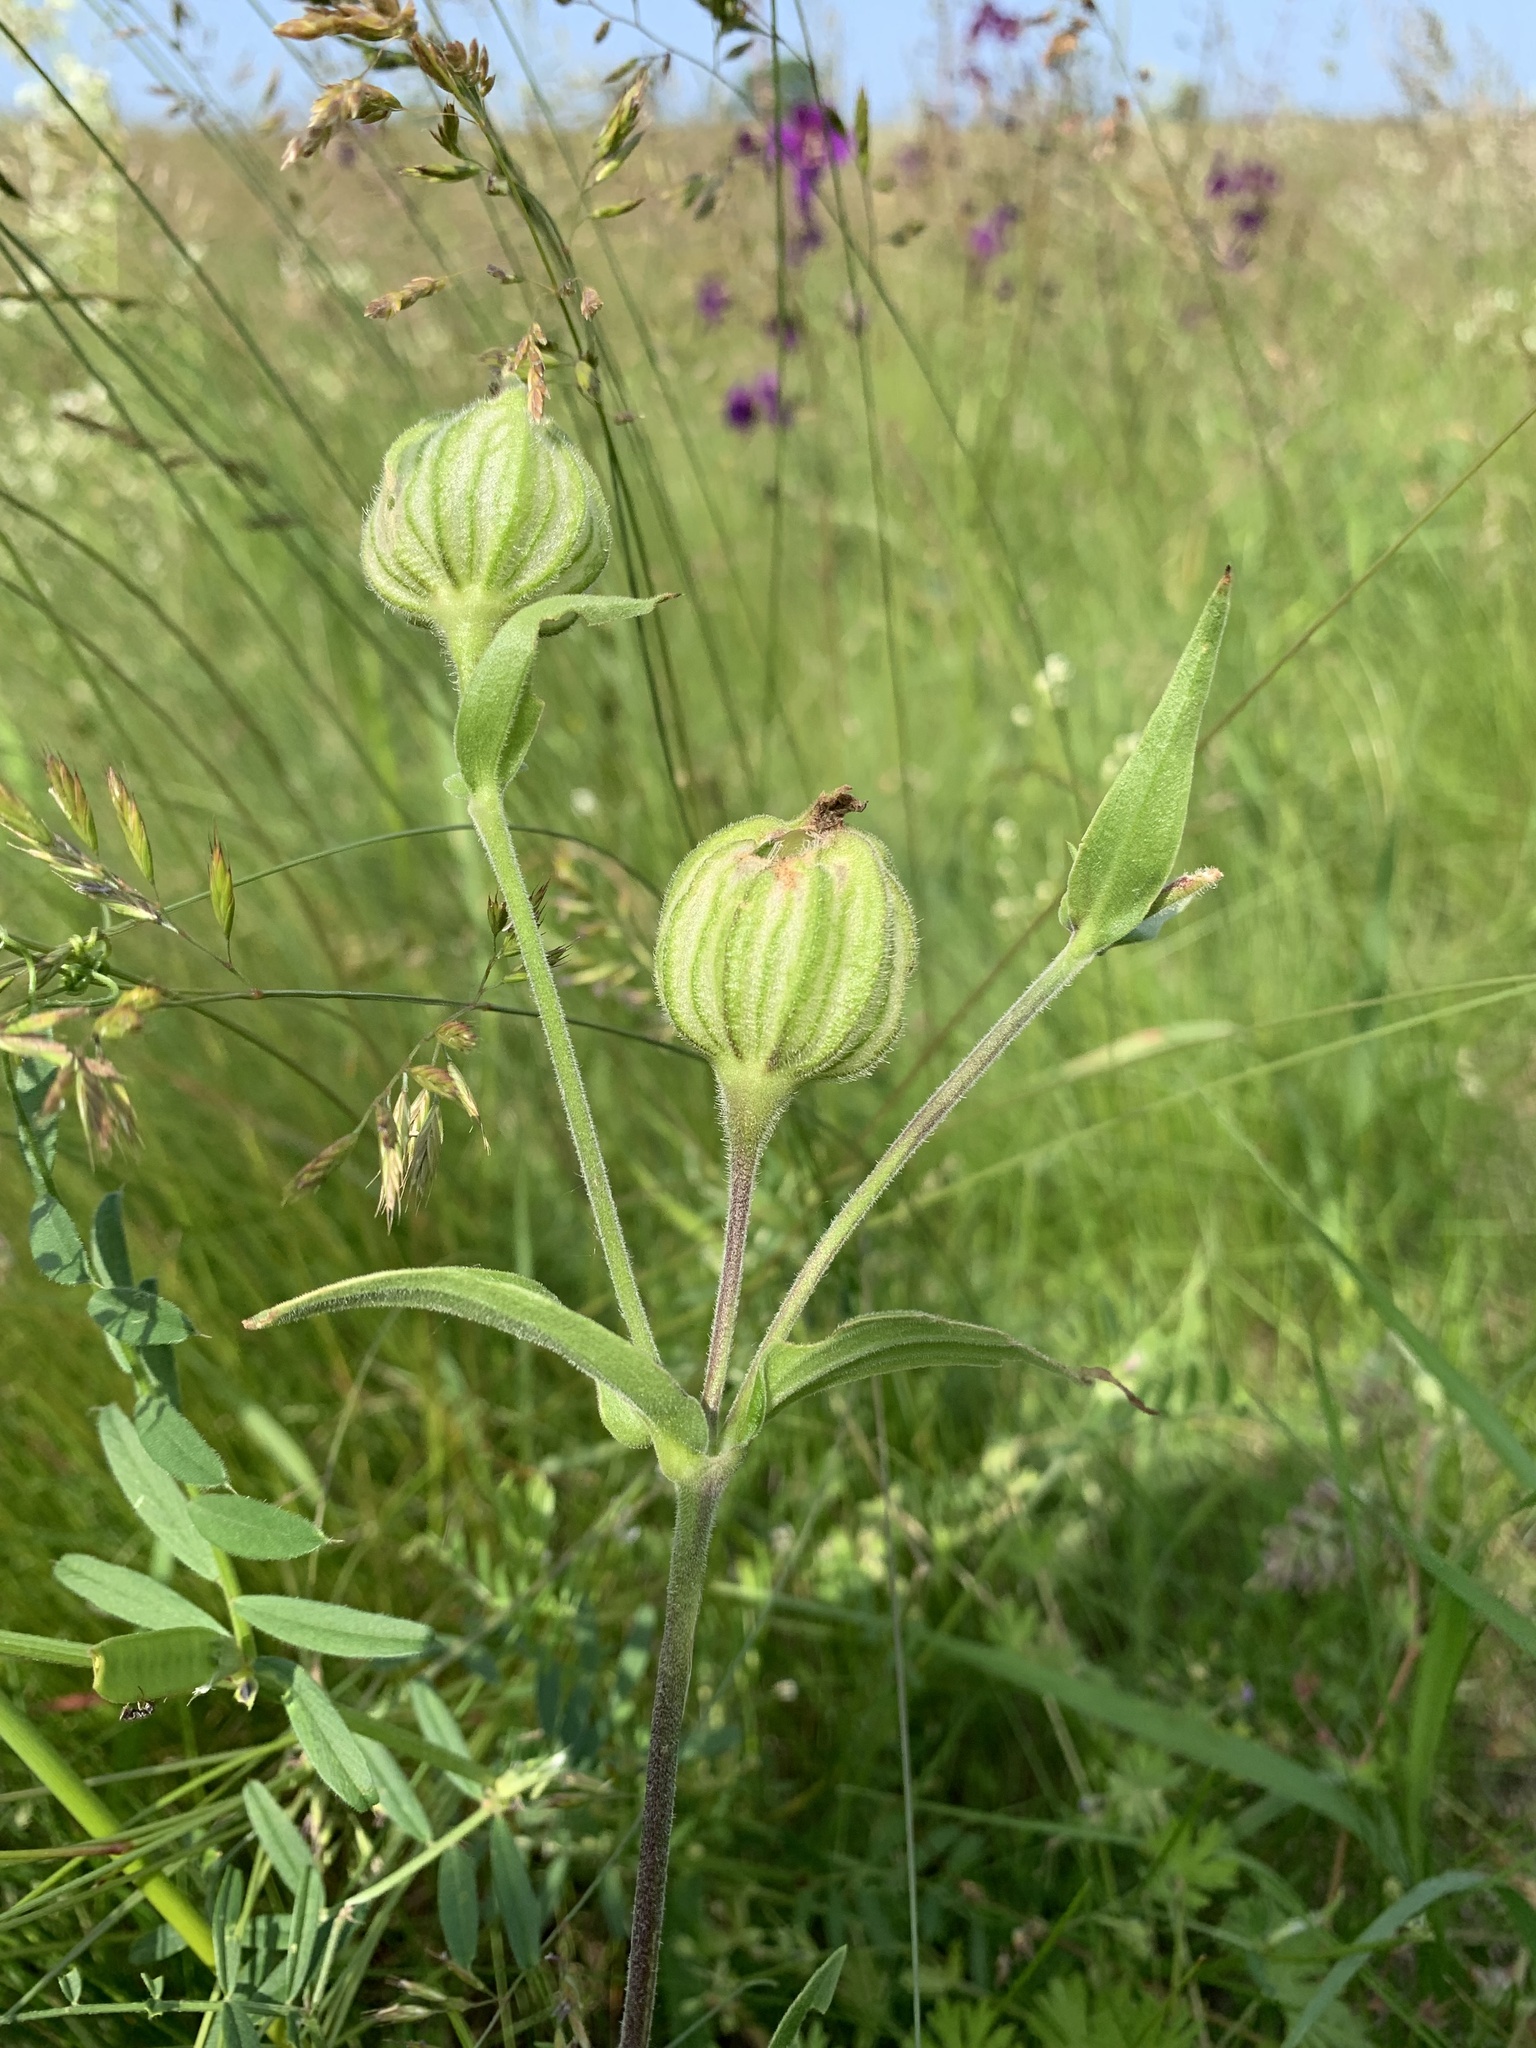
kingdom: Plantae
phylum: Tracheophyta
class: Magnoliopsida
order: Caryophyllales
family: Caryophyllaceae
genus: Silene
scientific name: Silene latifolia
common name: White campion
